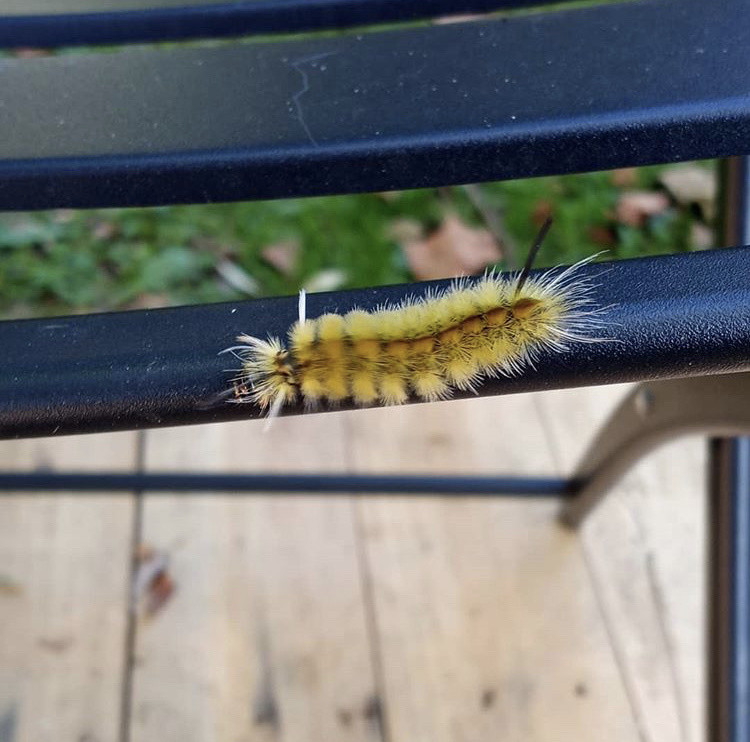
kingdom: Animalia
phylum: Arthropoda
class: Insecta
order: Lepidoptera
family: Erebidae
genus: Halysidota
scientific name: Halysidota tessellaris
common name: Banded tussock moth
